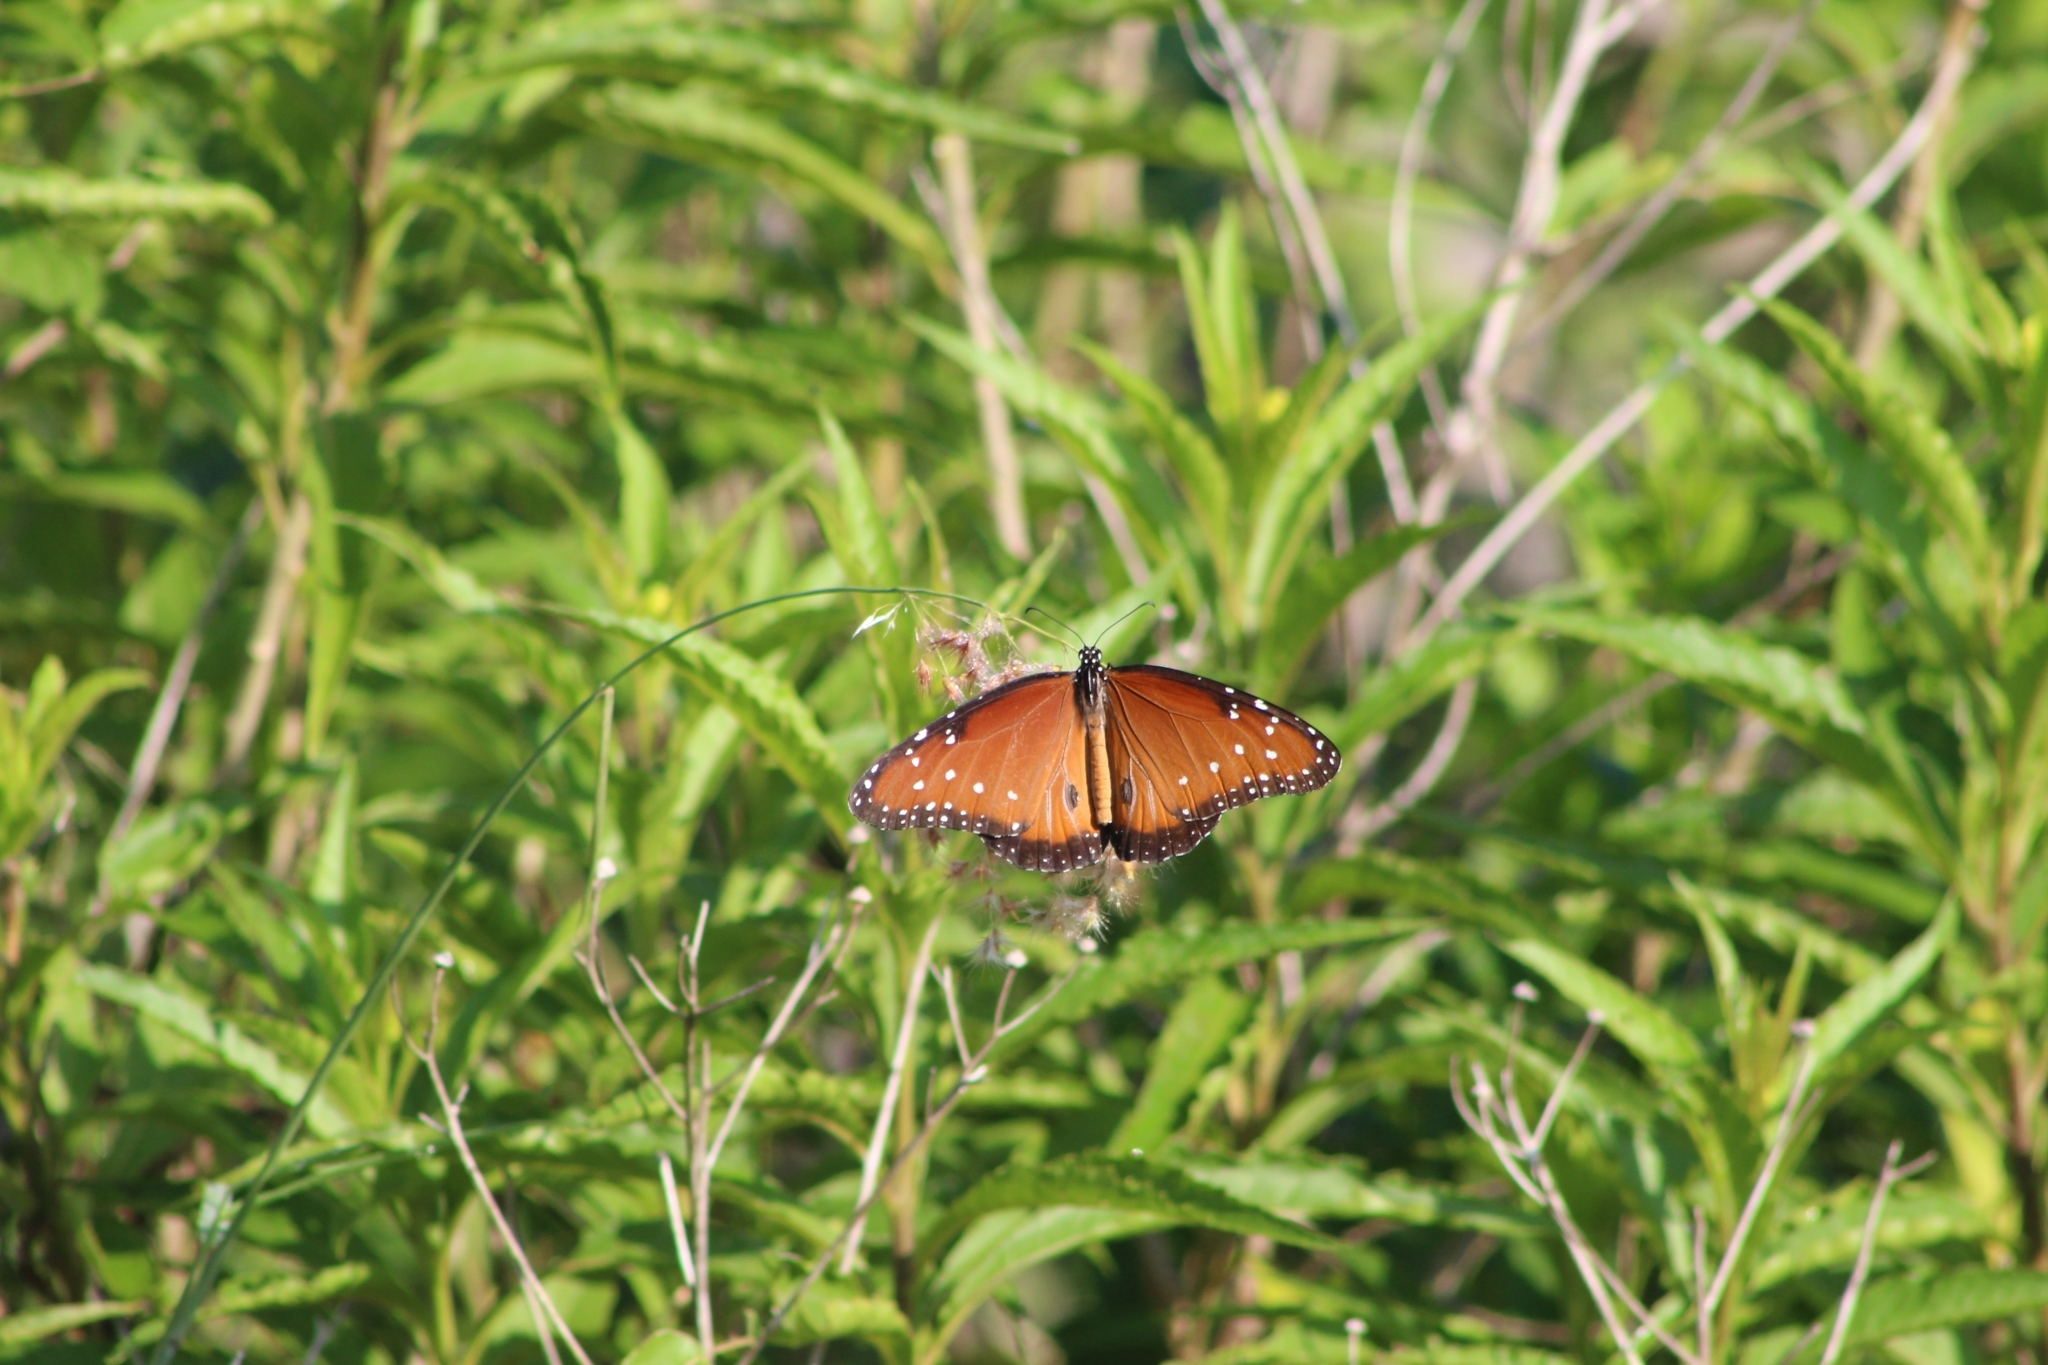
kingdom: Animalia
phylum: Arthropoda
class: Insecta
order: Lepidoptera
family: Nymphalidae
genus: Danaus
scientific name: Danaus gilippus
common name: Queen
